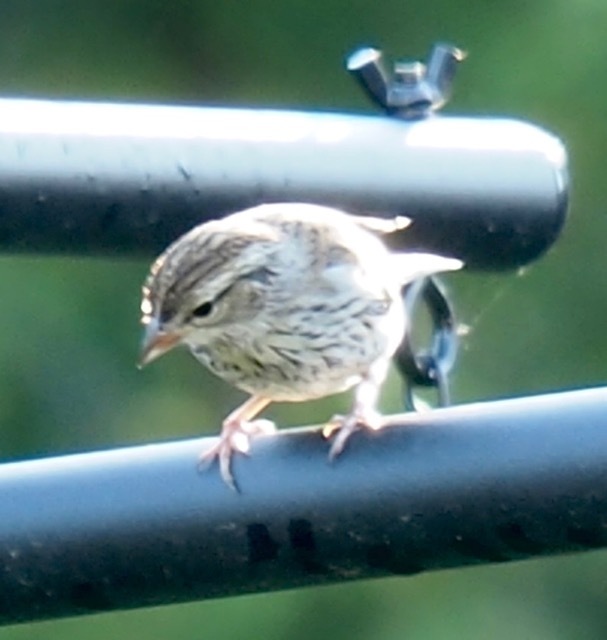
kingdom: Animalia
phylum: Chordata
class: Aves
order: Passeriformes
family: Passerellidae
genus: Spizella
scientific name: Spizella passerina
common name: Chipping sparrow
